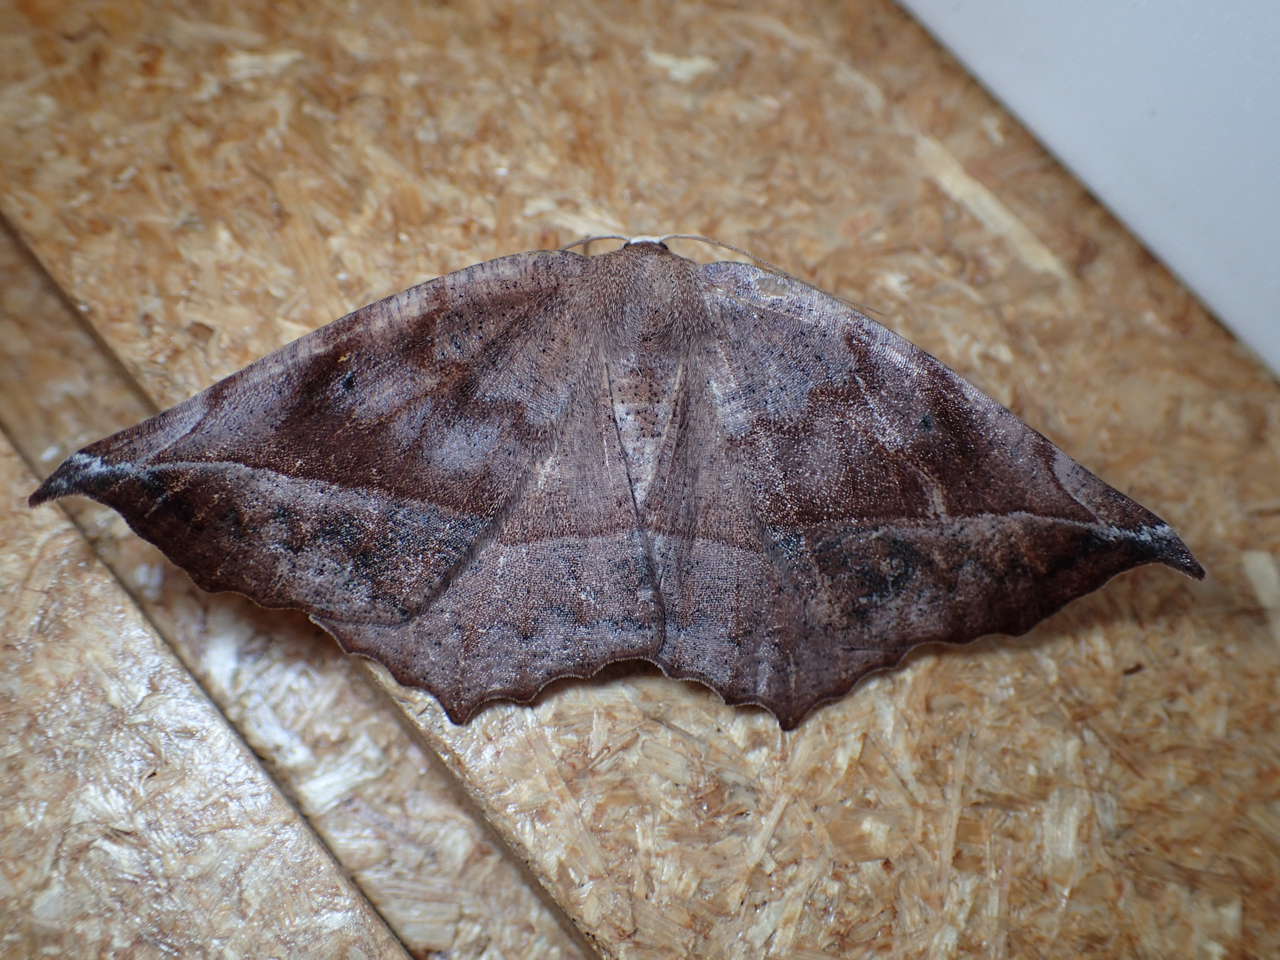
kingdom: Animalia
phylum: Arthropoda
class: Insecta
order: Lepidoptera
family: Geometridae
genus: Eutrapela
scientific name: Eutrapela clemataria
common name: Curved-toothed geometer
